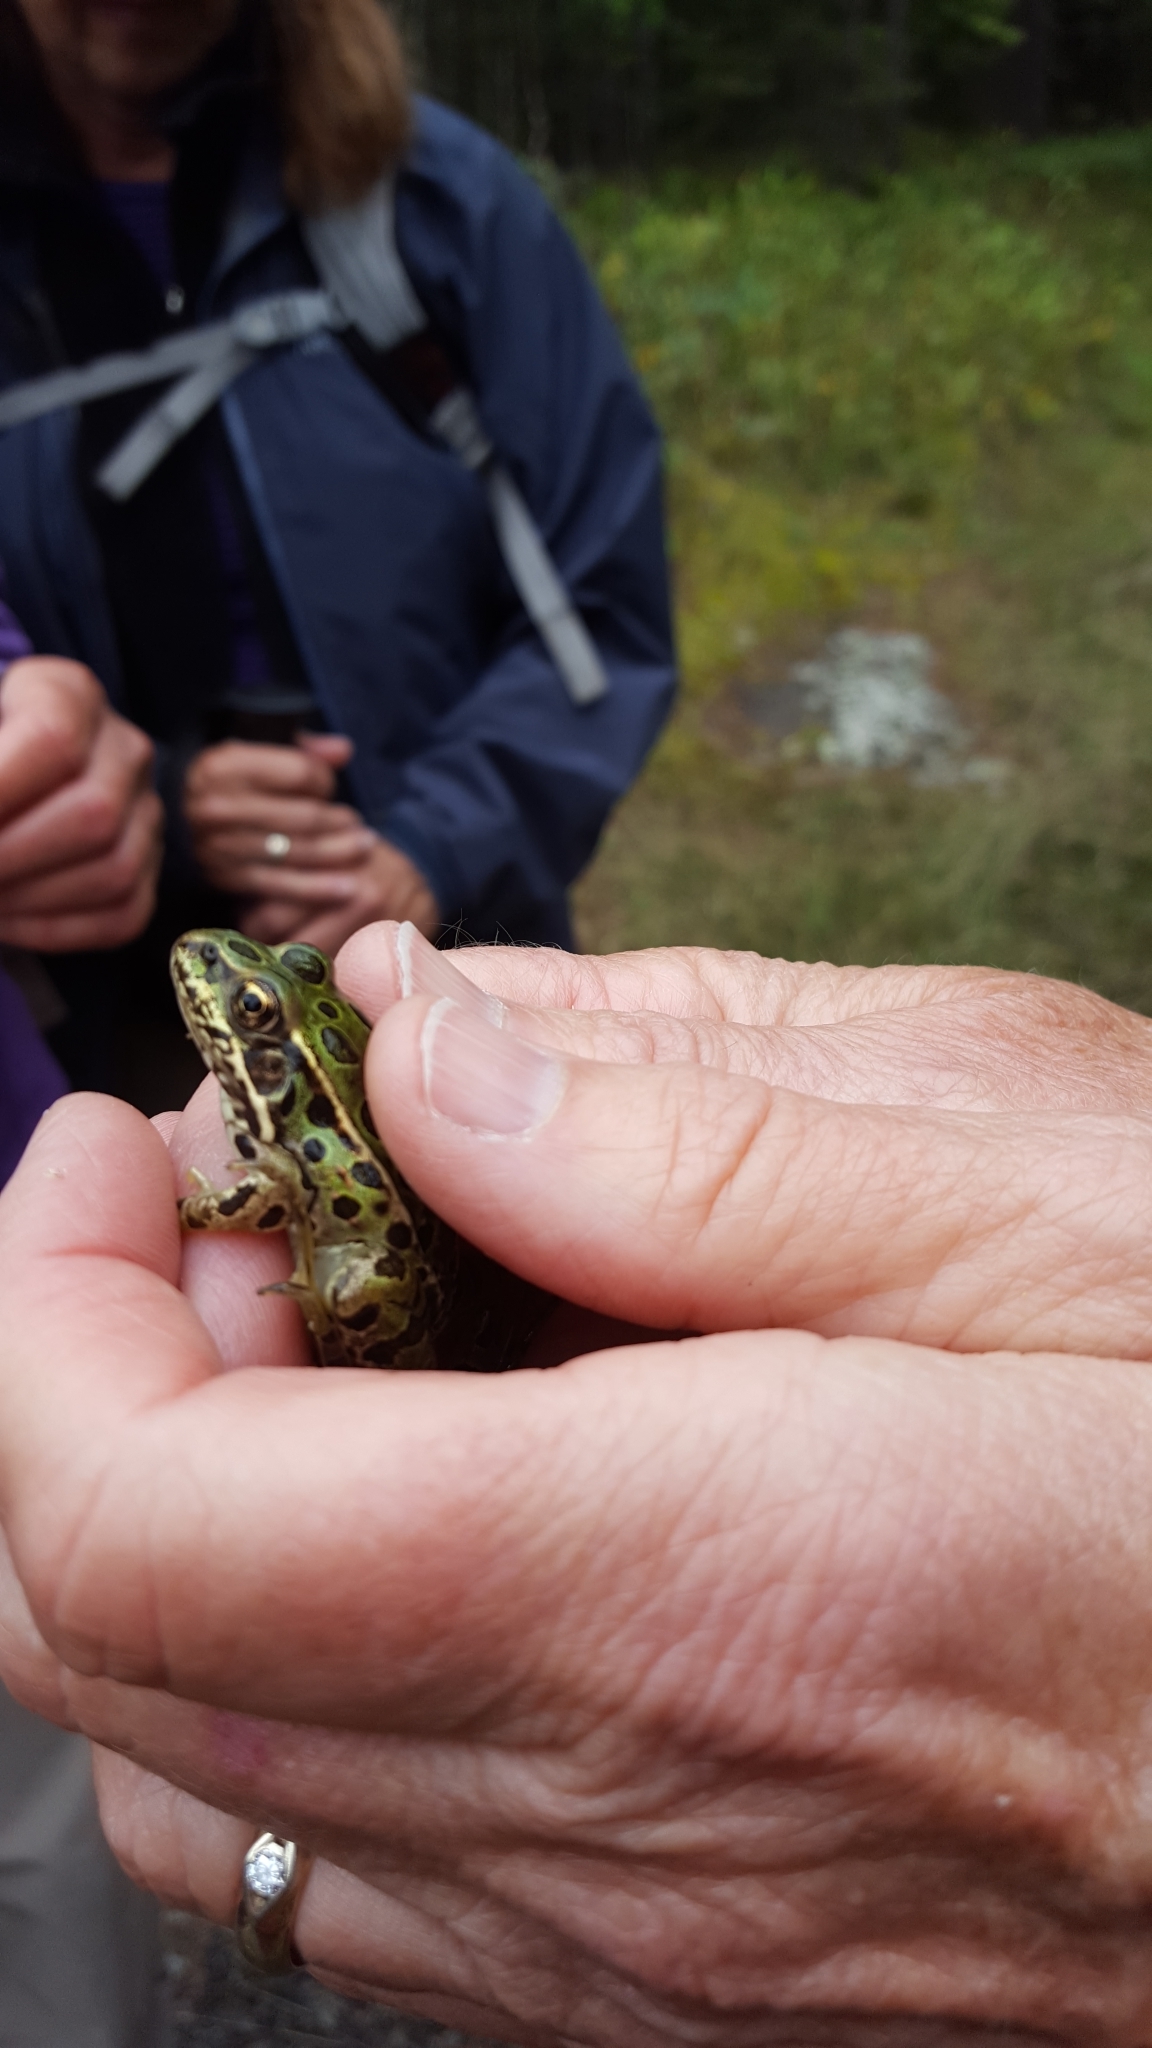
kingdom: Animalia
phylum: Chordata
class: Amphibia
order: Anura
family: Ranidae
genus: Lithobates
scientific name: Lithobates pipiens
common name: Northern leopard frog
